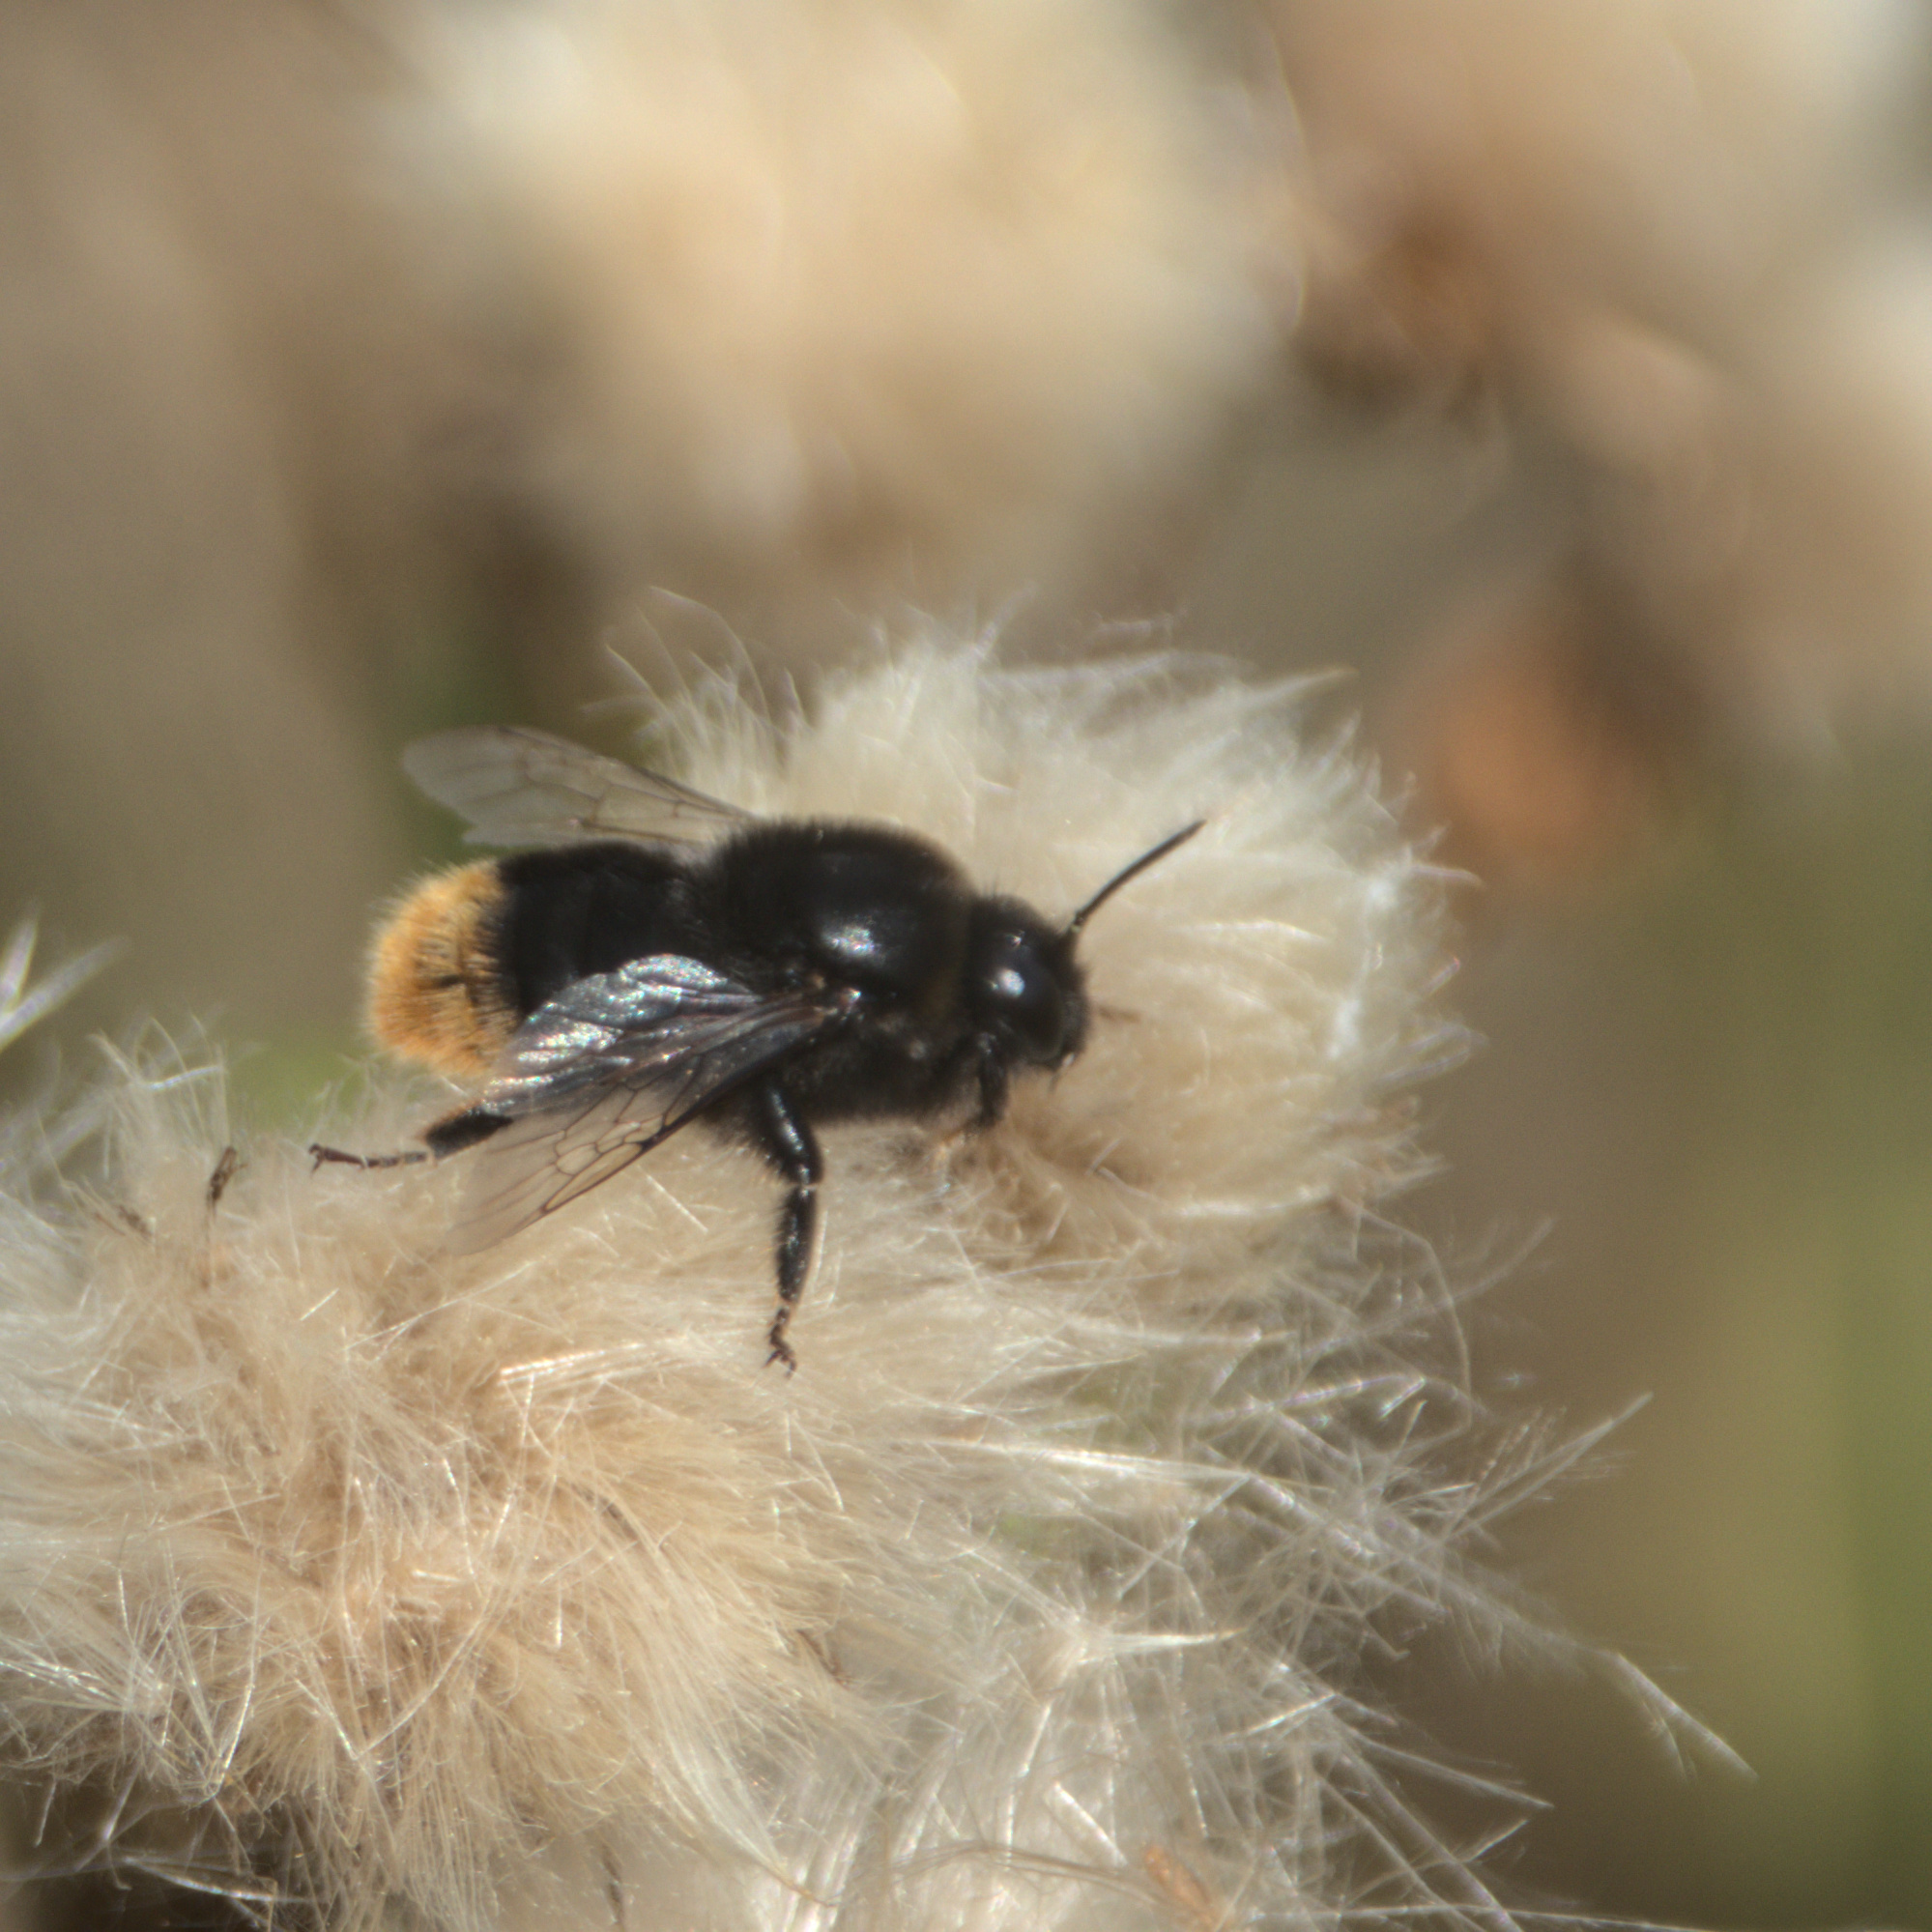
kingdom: Animalia
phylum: Arthropoda
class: Insecta
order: Hymenoptera
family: Apidae
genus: Bombus
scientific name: Bombus confusus
